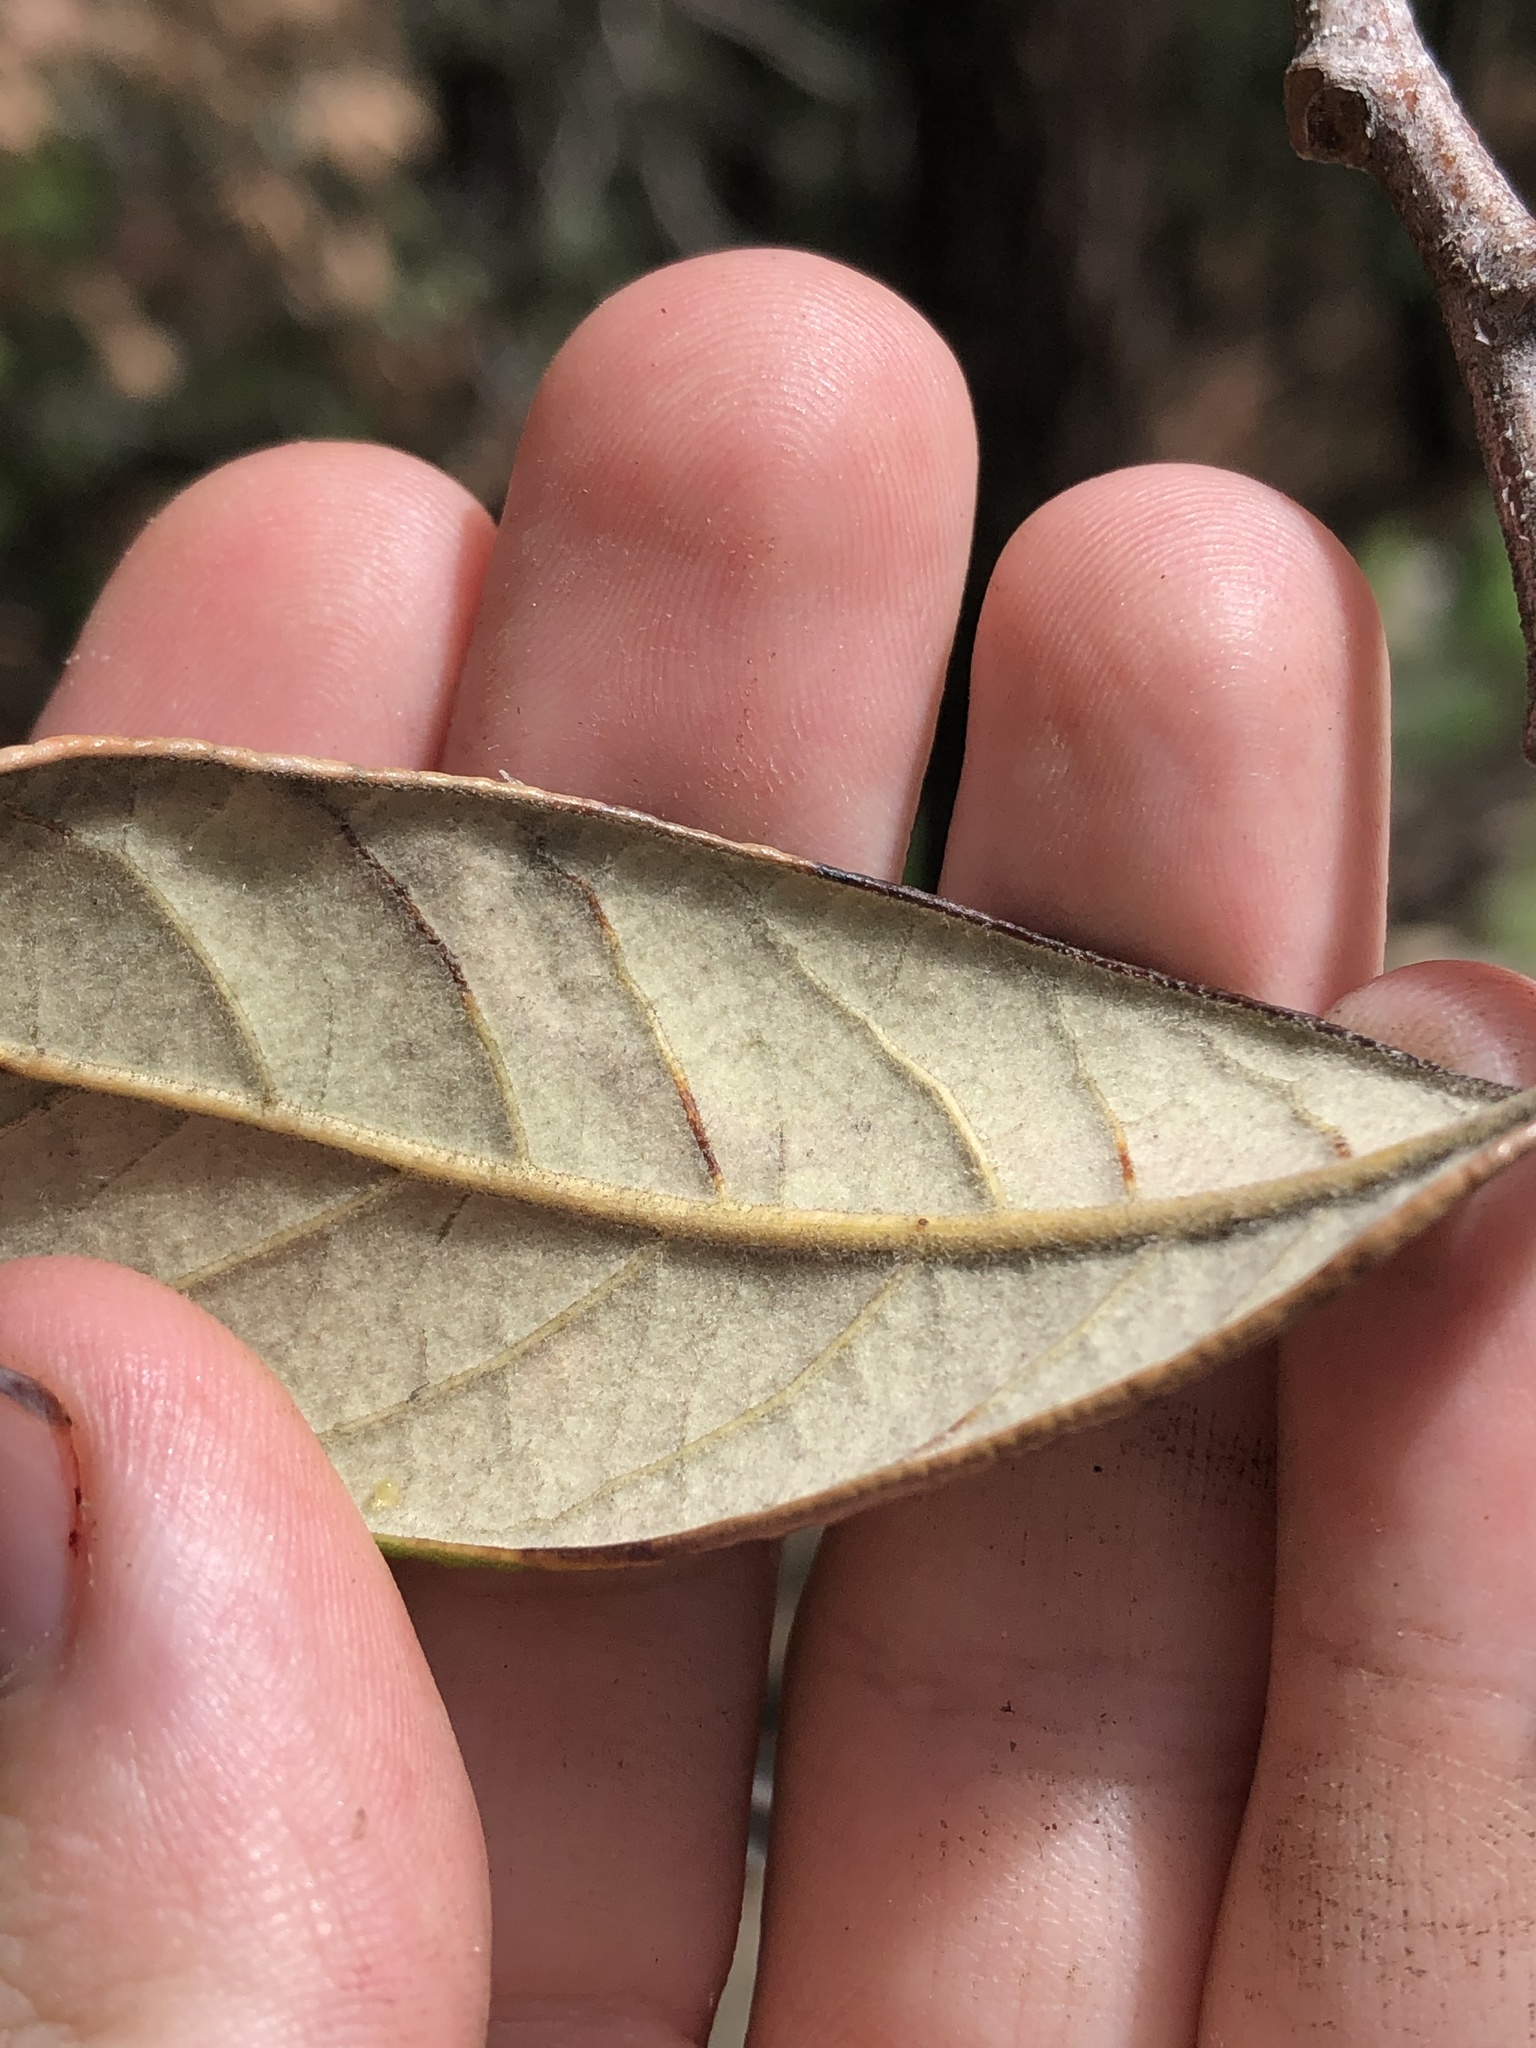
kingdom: Plantae
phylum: Tracheophyta
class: Magnoliopsida
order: Fagales
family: Fagaceae
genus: Quercus
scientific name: Quercus hypoleucoides
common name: Silverleaf oak
